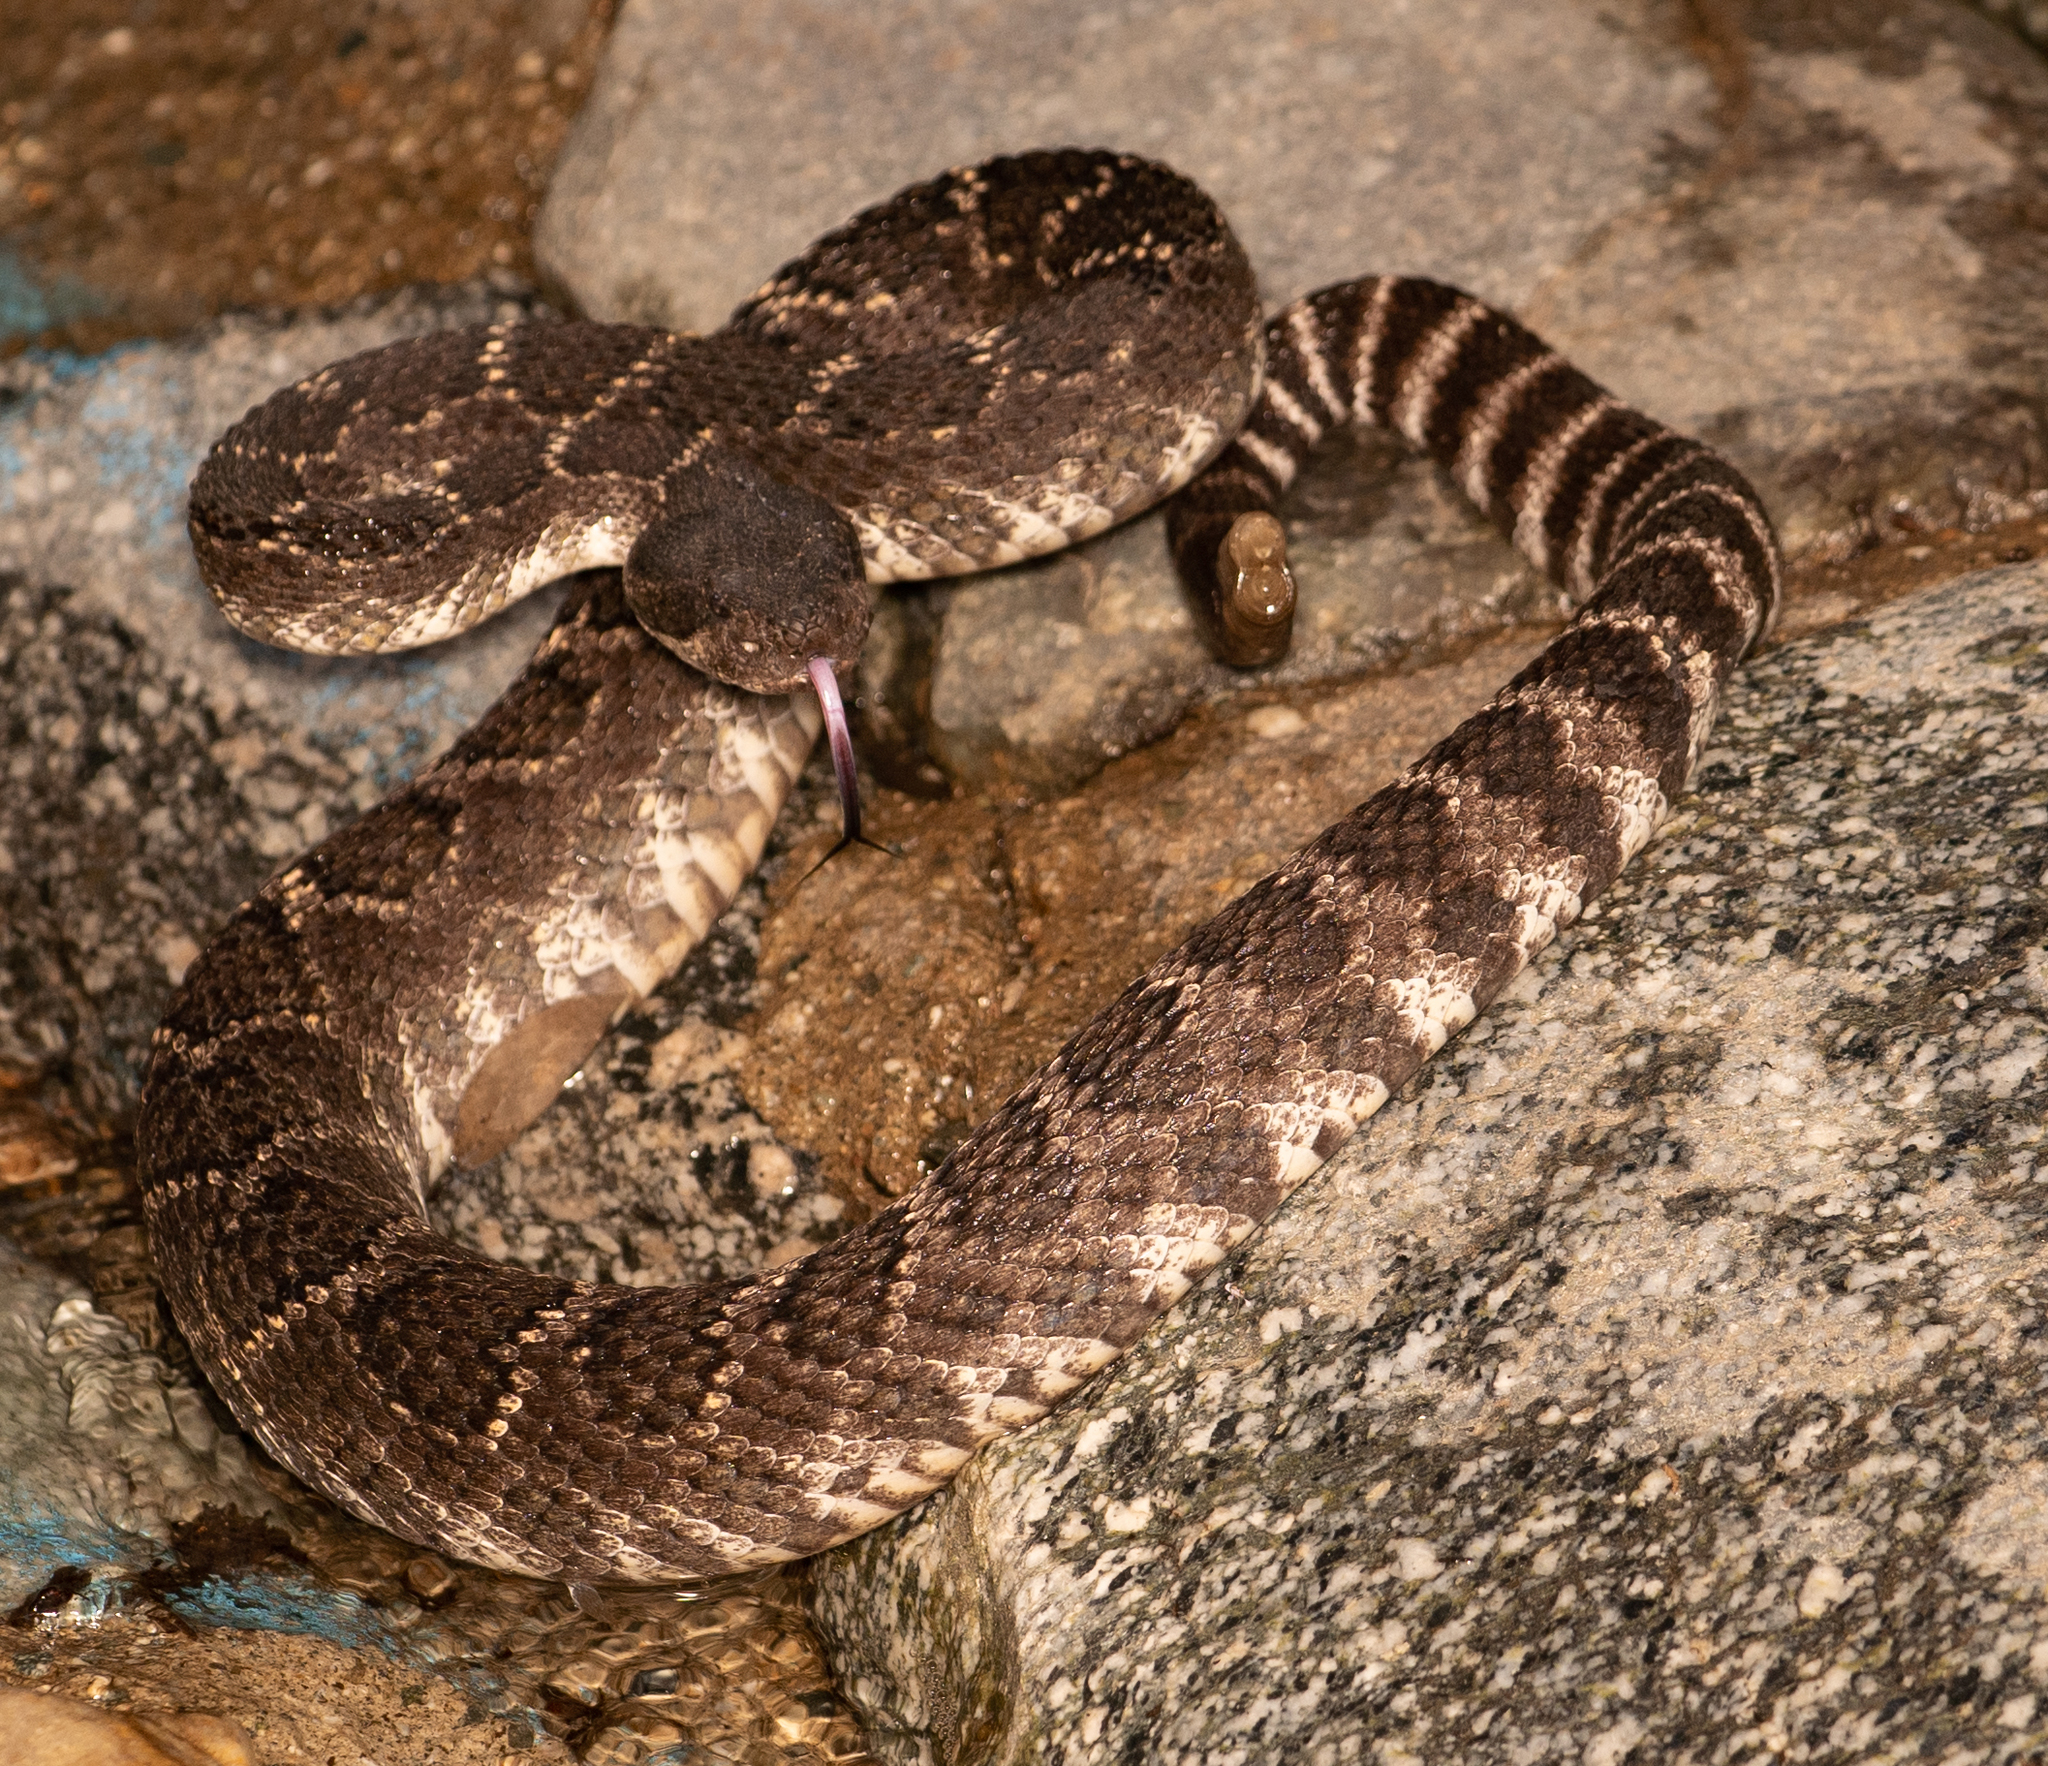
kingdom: Animalia
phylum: Chordata
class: Squamata
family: Viperidae
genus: Crotalus
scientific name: Crotalus oreganus
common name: Abyssus
